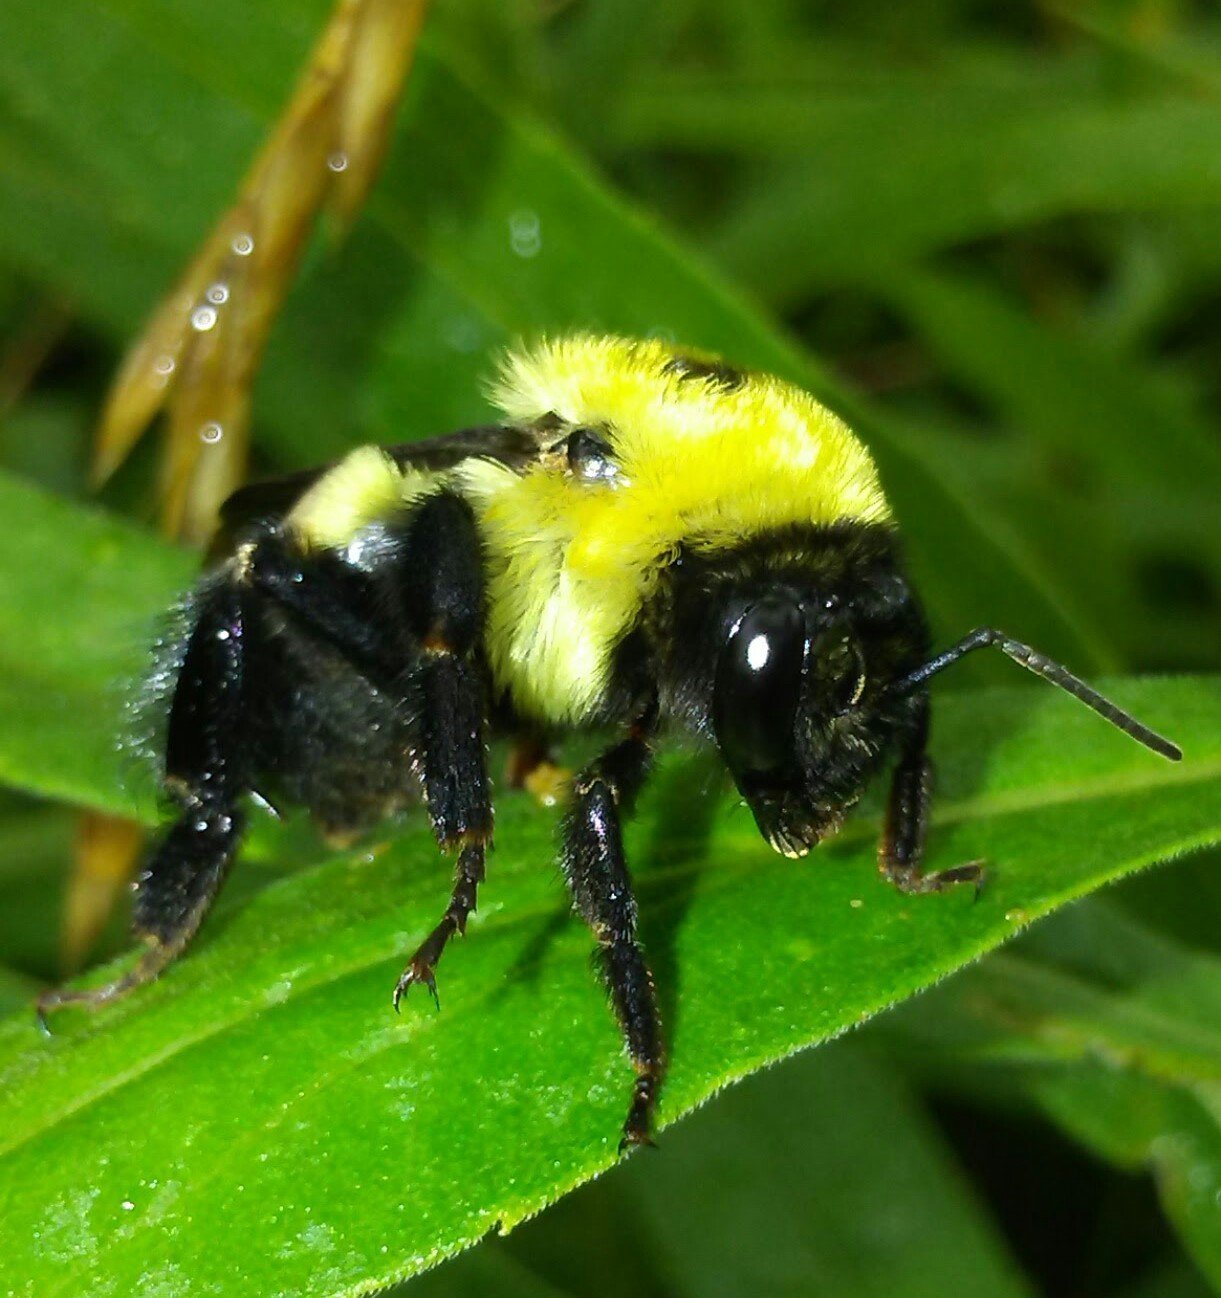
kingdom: Animalia
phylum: Arthropoda
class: Insecta
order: Hymenoptera
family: Apidae
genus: Bombus
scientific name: Bombus griseocollis
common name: Brown-belted bumble bee
